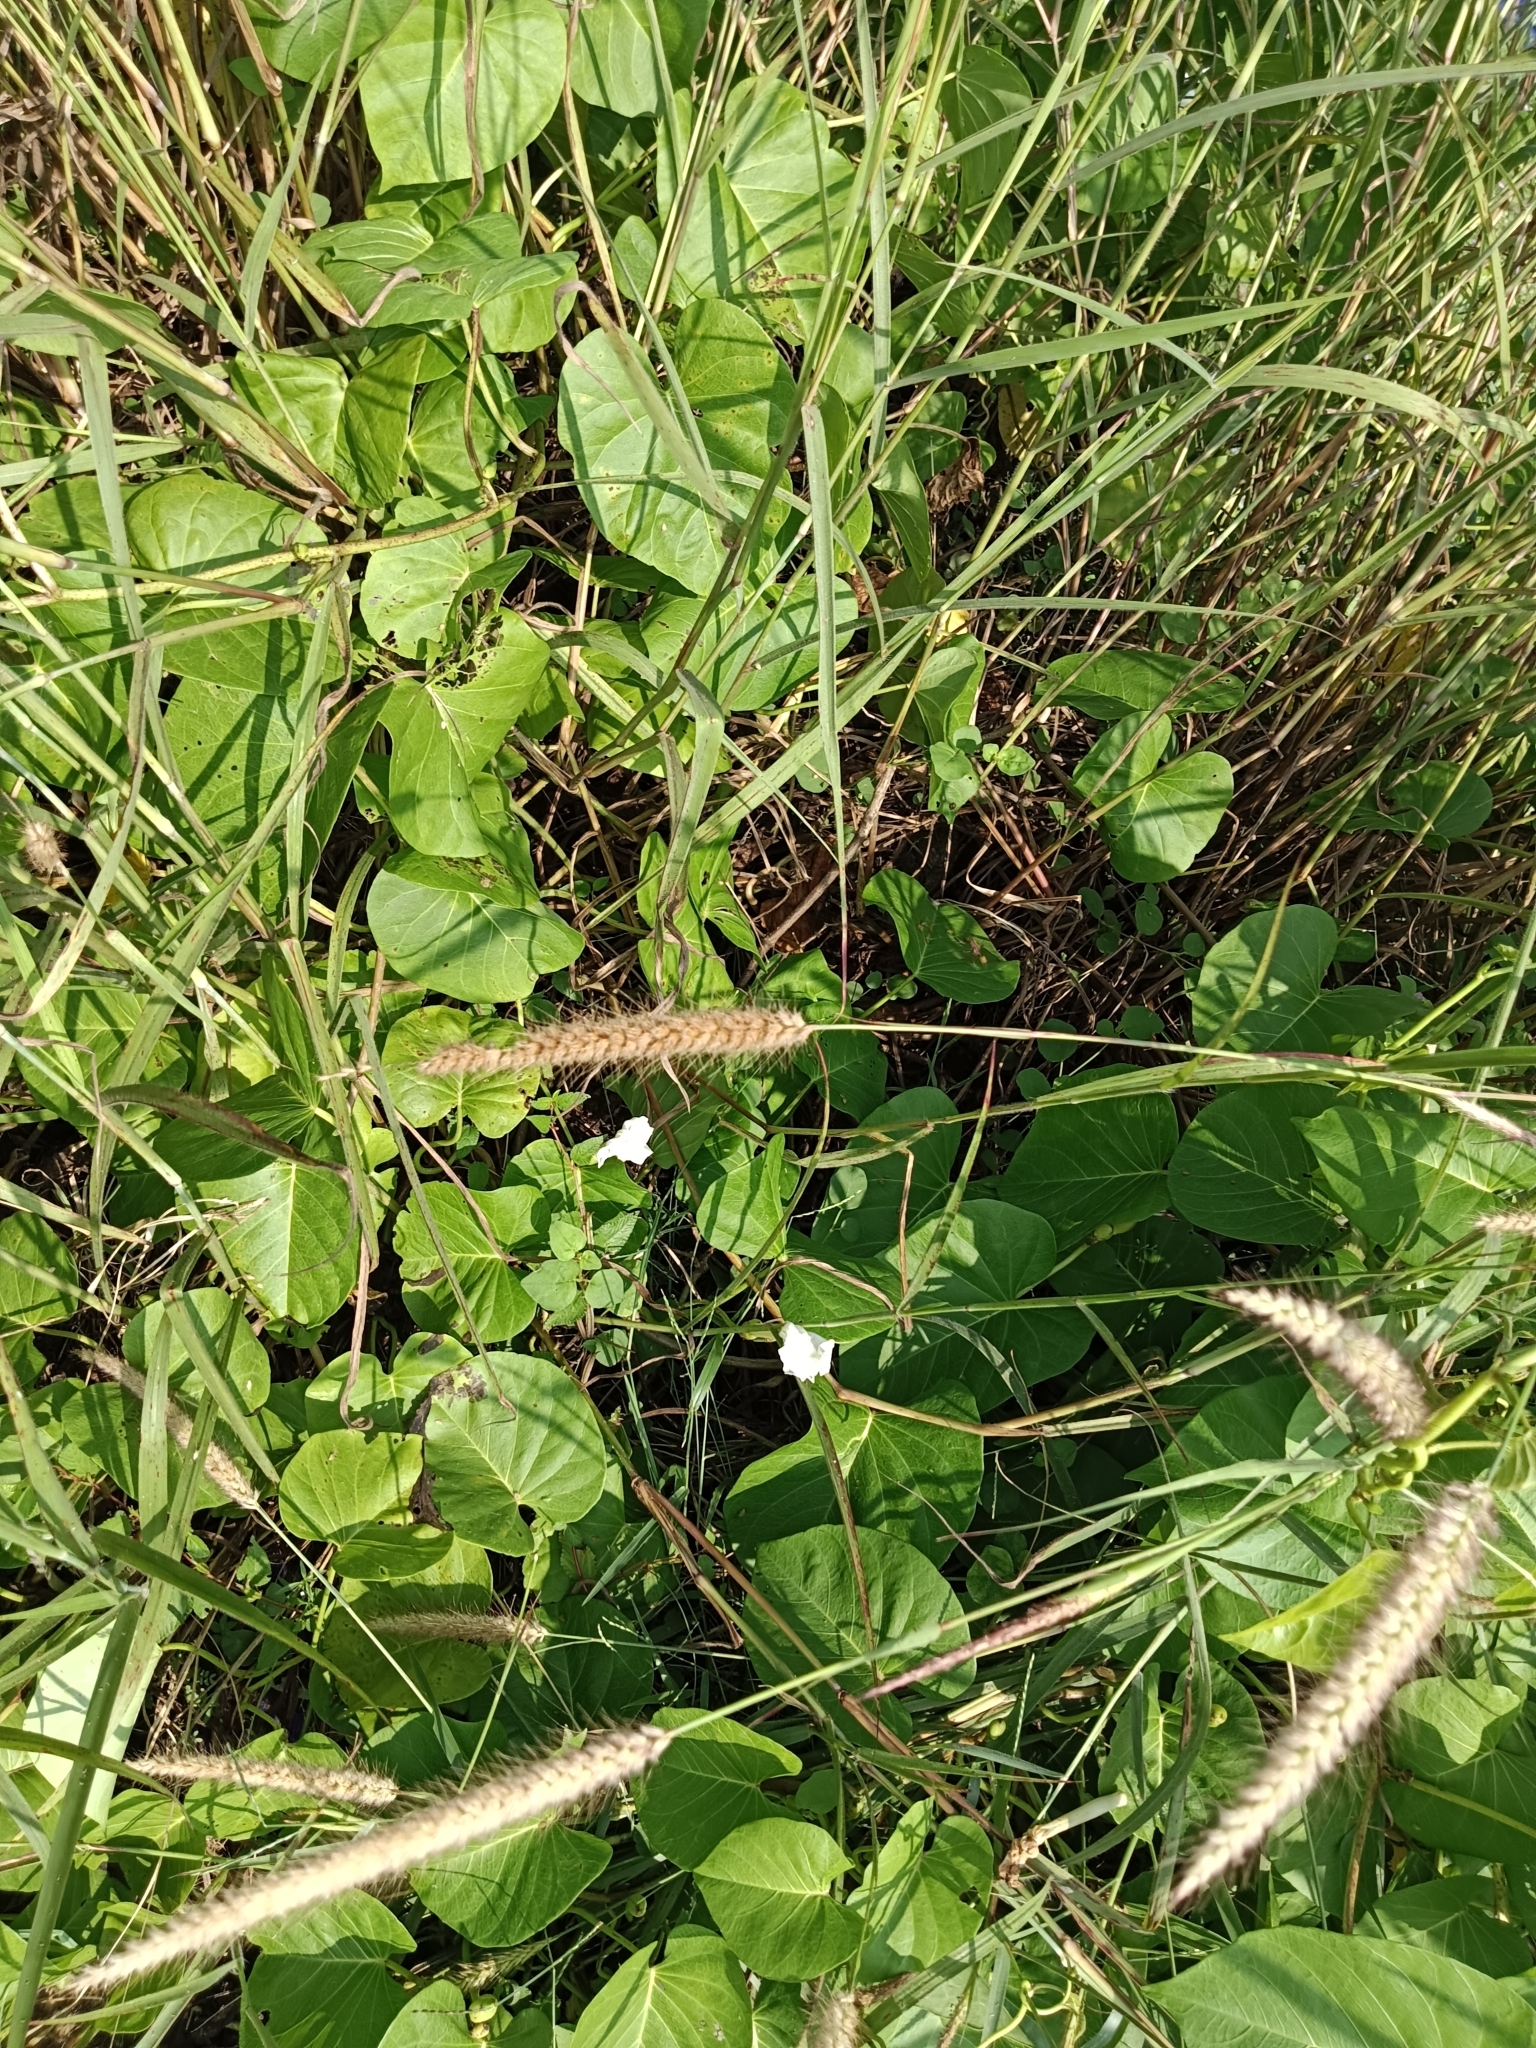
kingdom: Plantae
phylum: Tracheophyta
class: Magnoliopsida
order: Solanales
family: Convolvulaceae
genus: Ipomoea
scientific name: Ipomoea violacea
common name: Beach moonflower
